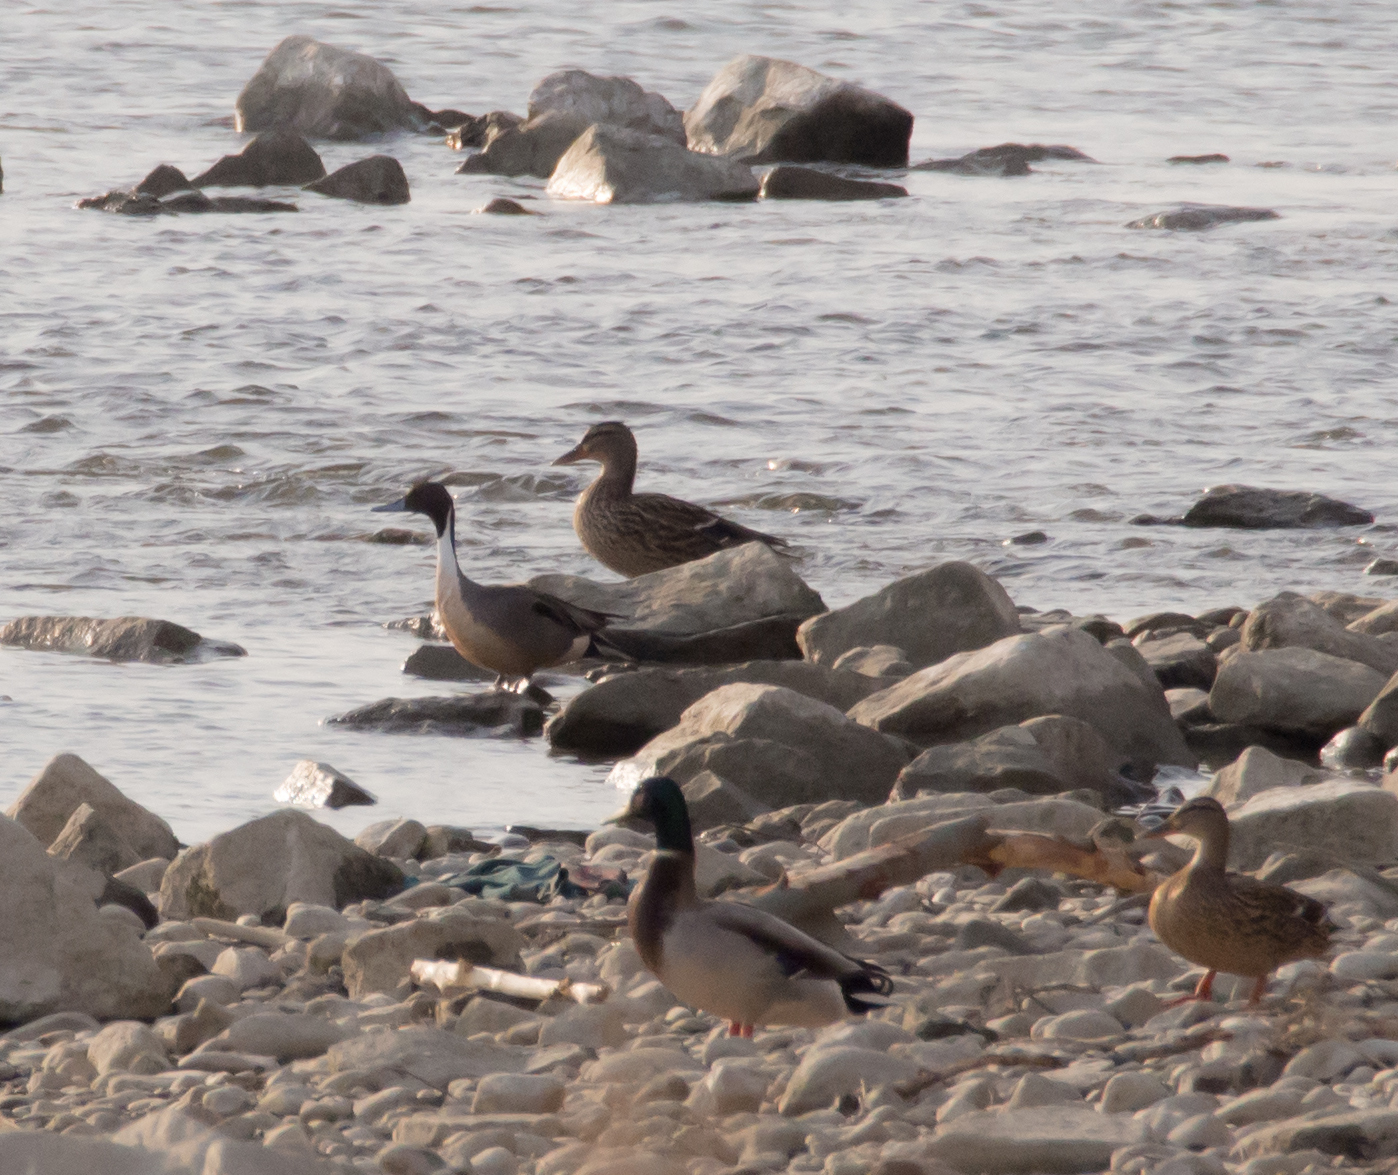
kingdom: Animalia
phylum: Chordata
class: Aves
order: Anseriformes
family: Anatidae
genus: Anas
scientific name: Anas acuta
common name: Northern pintail
